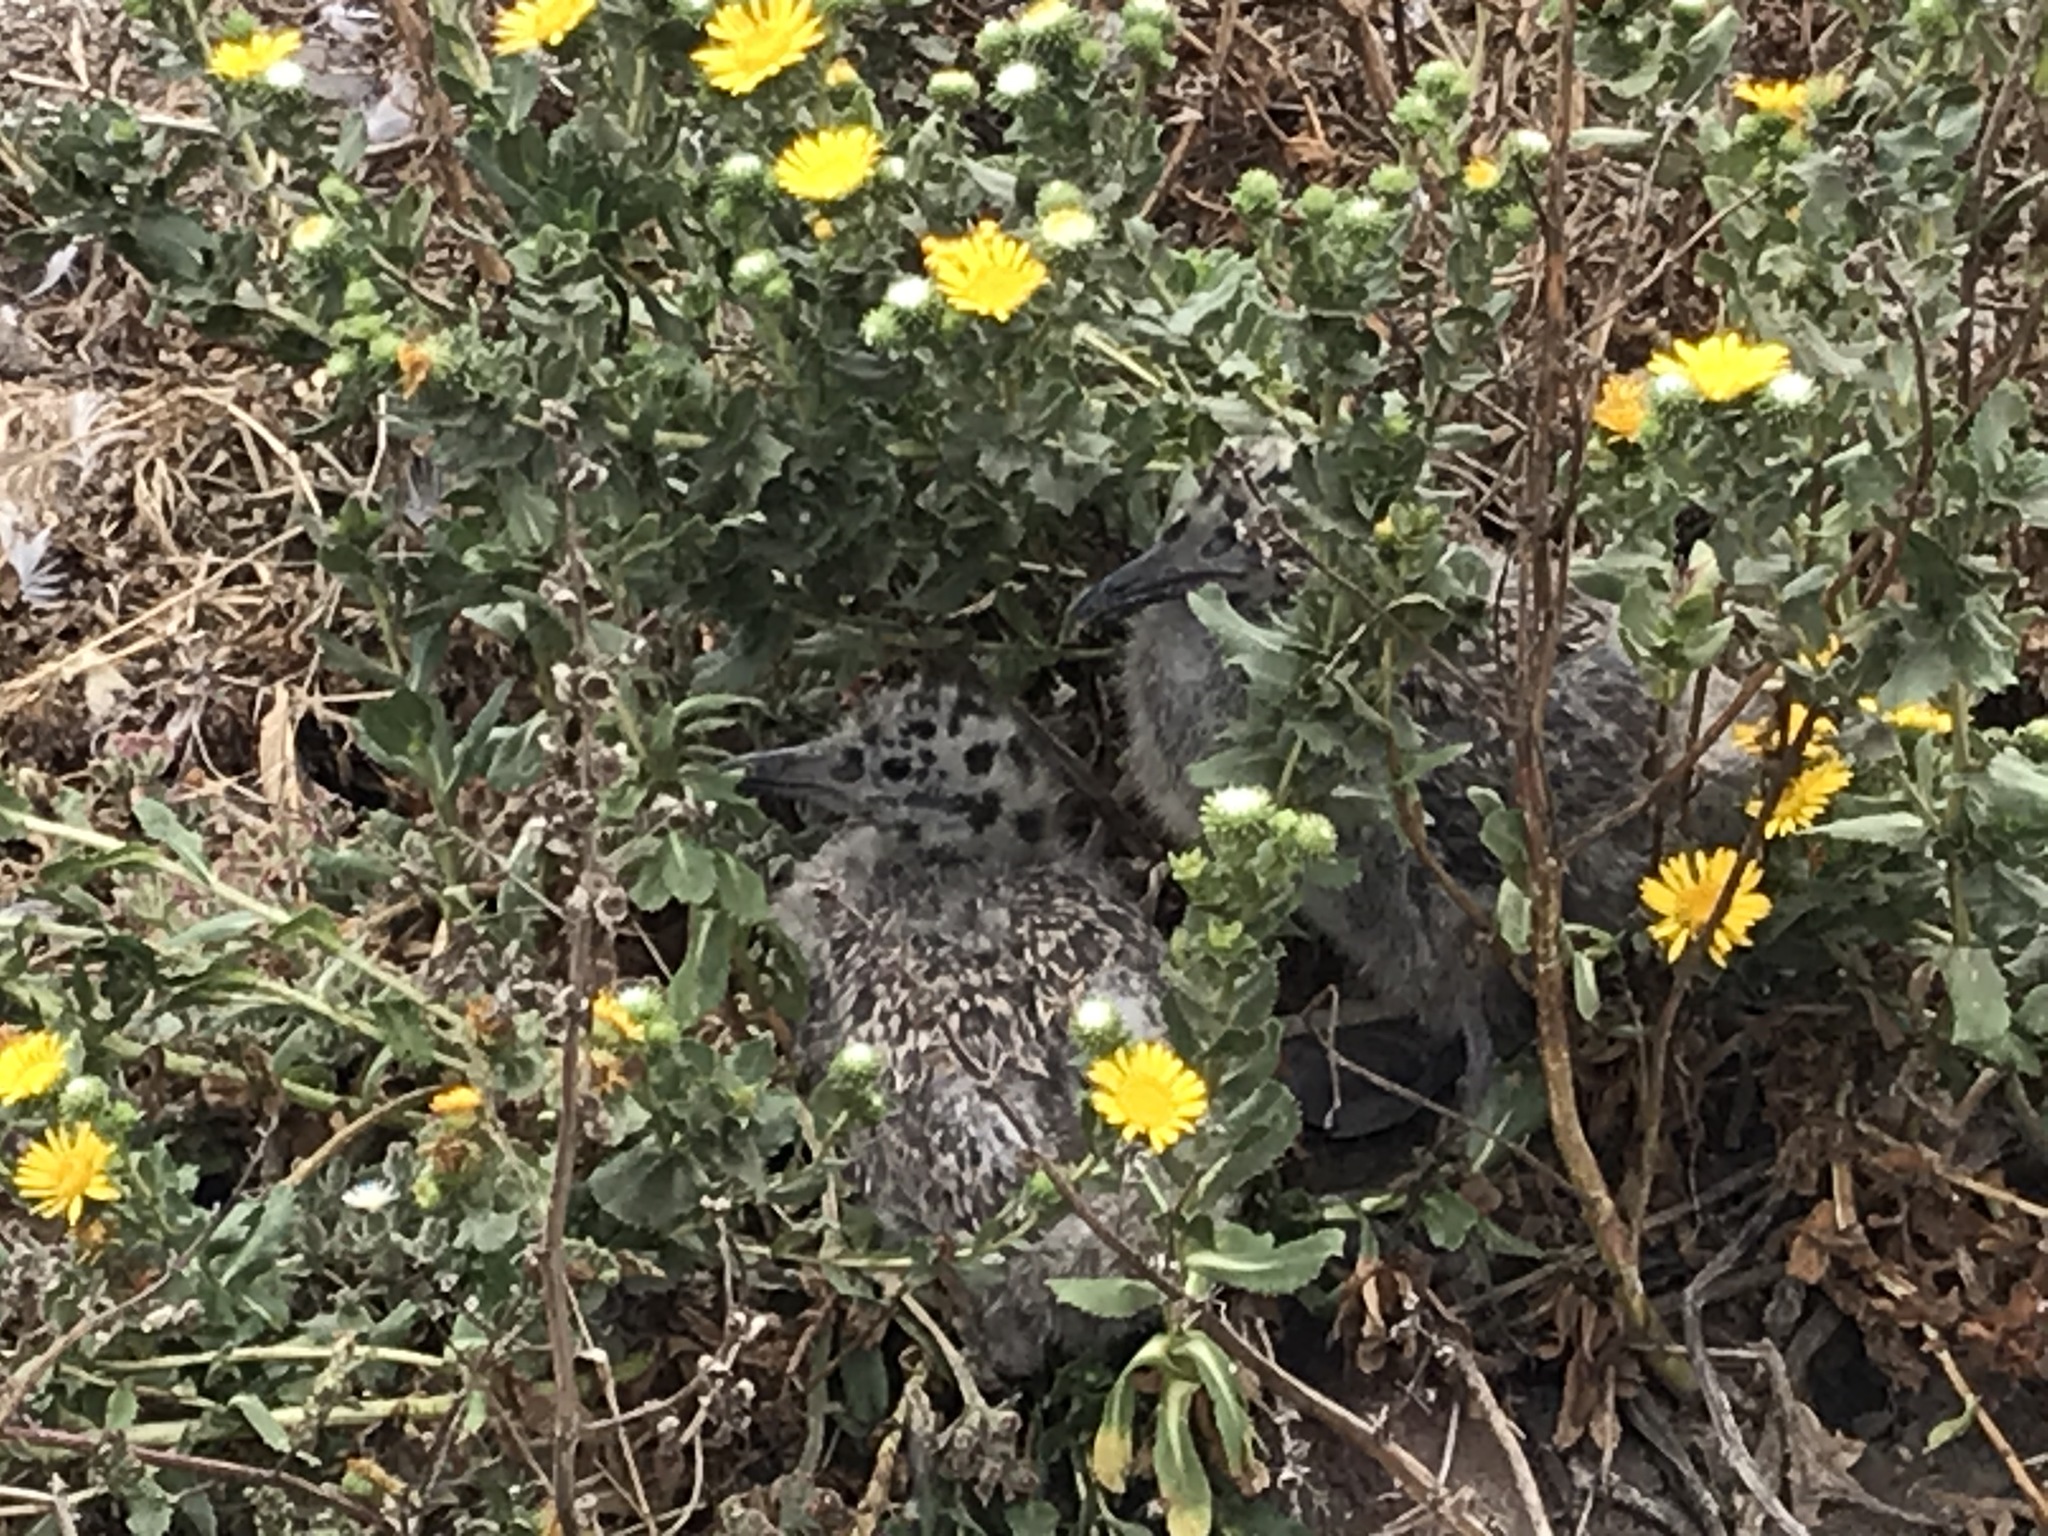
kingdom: Animalia
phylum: Chordata
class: Aves
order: Charadriiformes
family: Laridae
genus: Larus
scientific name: Larus occidentalis
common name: Western gull
